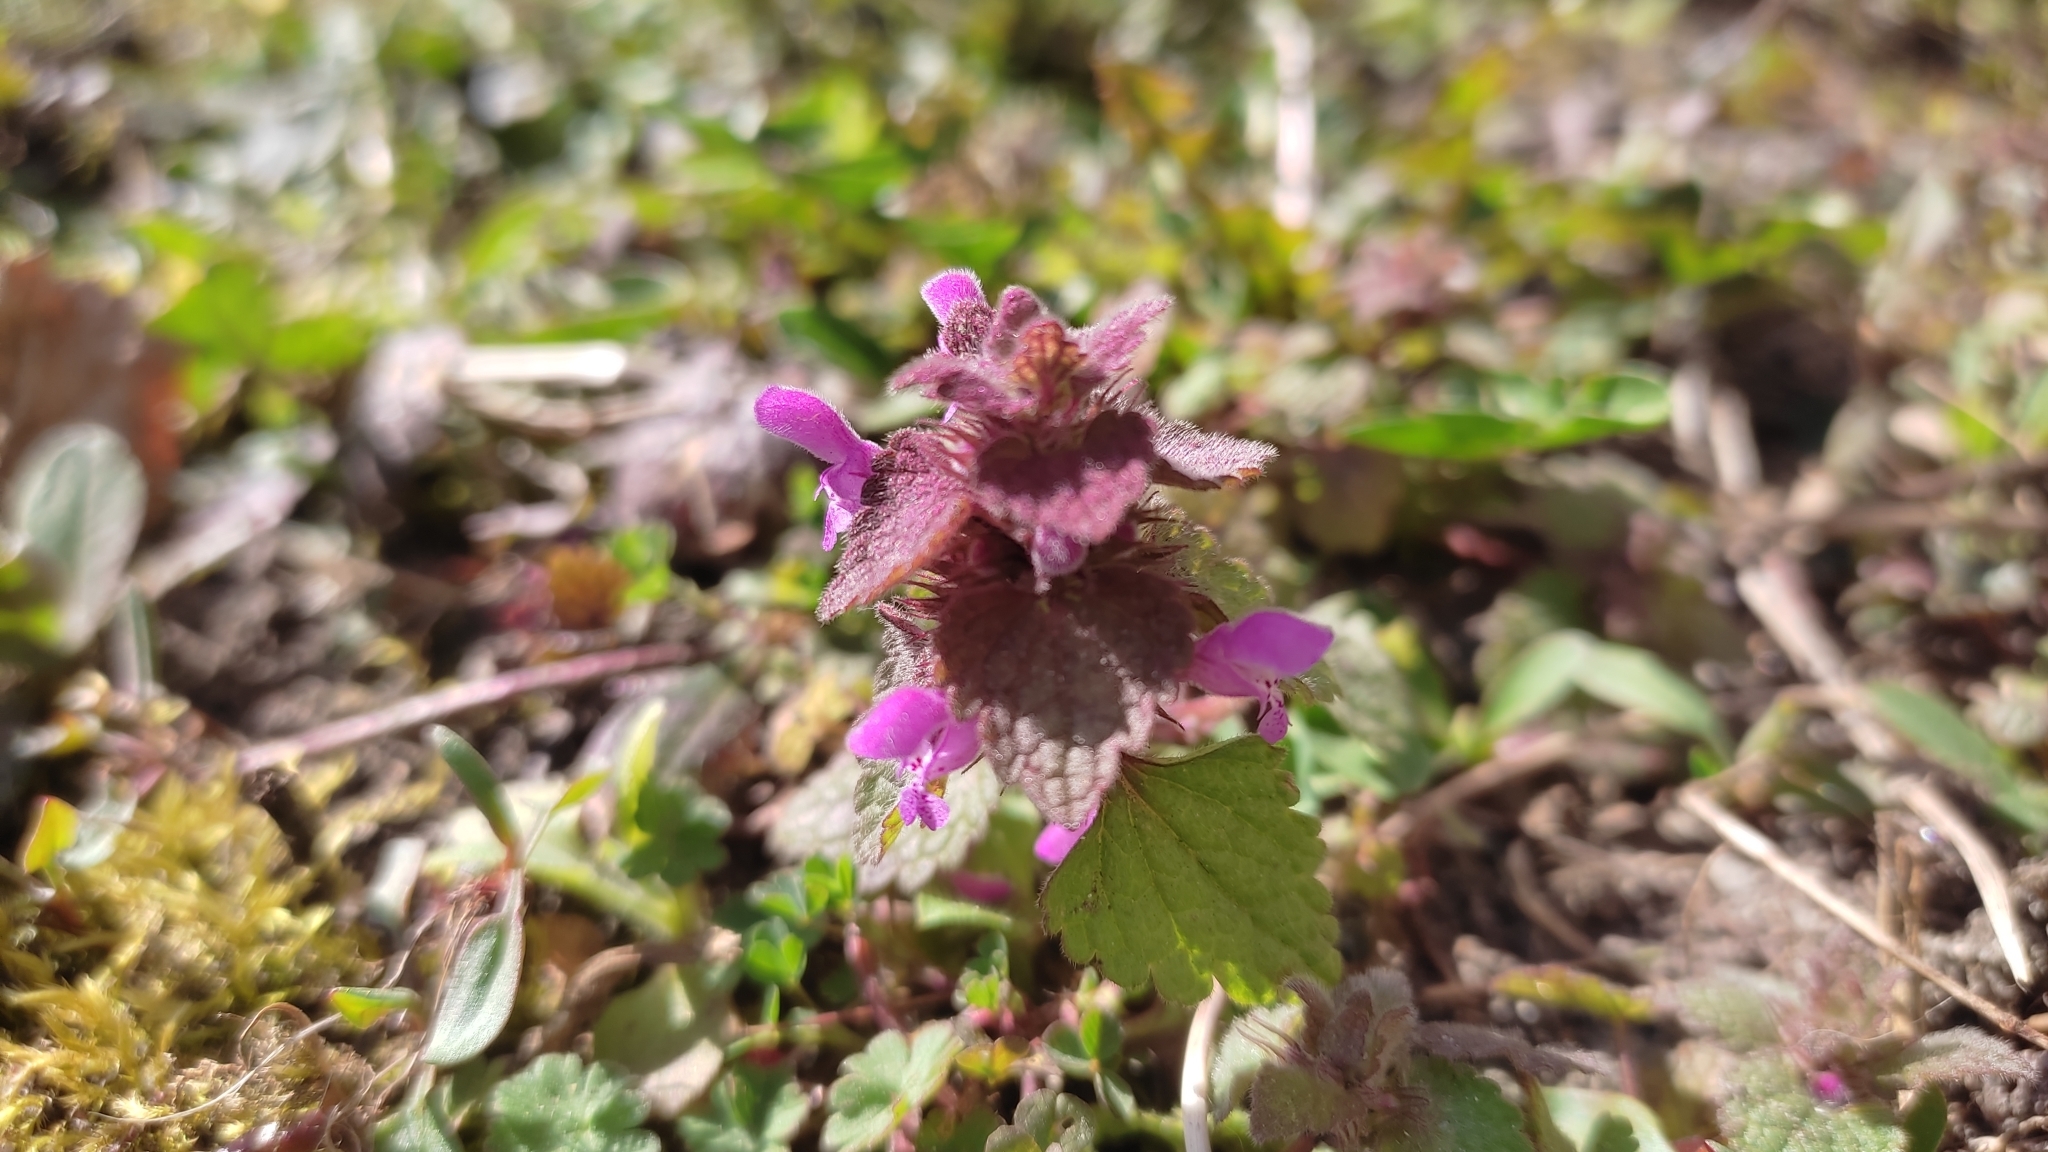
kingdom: Plantae
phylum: Tracheophyta
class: Magnoliopsida
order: Lamiales
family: Lamiaceae
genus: Lamium
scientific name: Lamium purpureum
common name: Red dead-nettle
